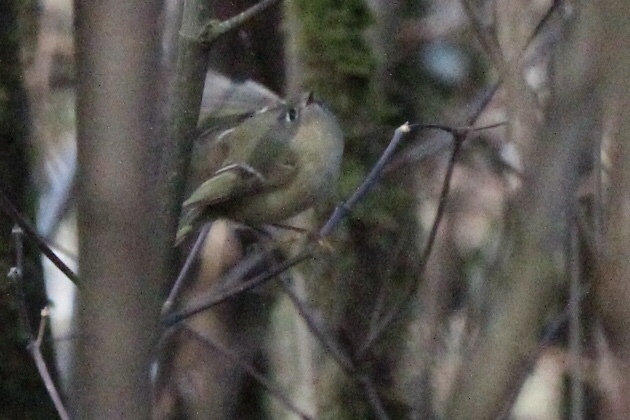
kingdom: Animalia
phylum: Chordata
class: Aves
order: Passeriformes
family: Regulidae
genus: Regulus
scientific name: Regulus calendula
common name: Ruby-crowned kinglet
